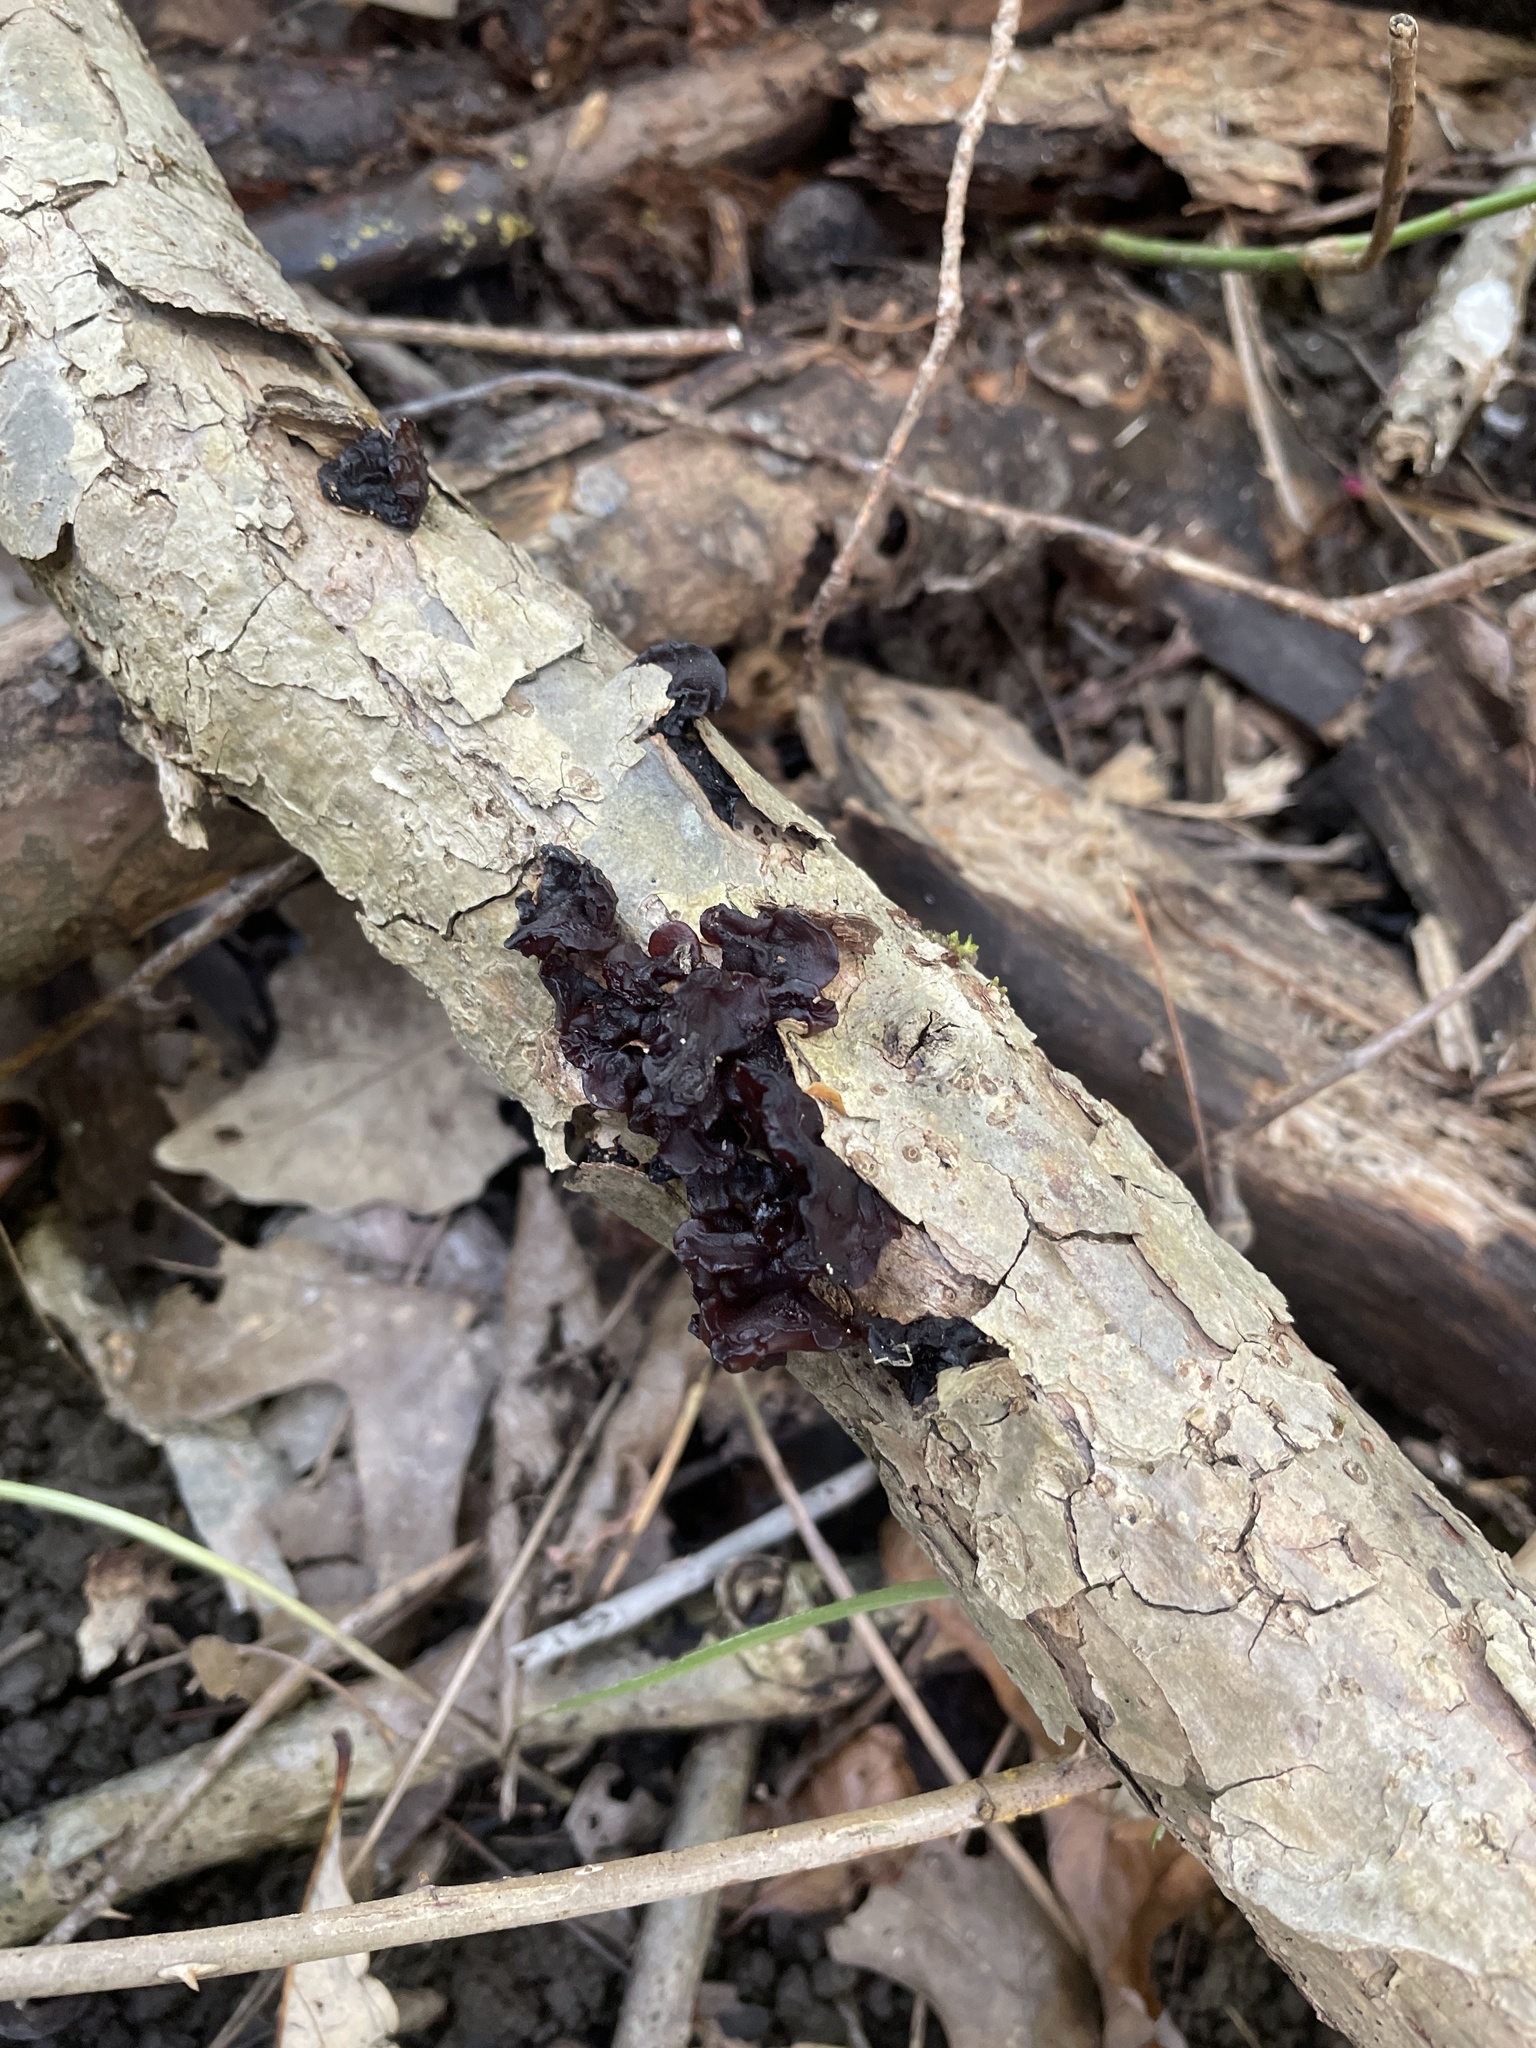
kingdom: Fungi
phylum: Basidiomycota
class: Agaricomycetes
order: Auriculariales
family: Auriculariaceae
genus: Exidia
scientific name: Exidia
